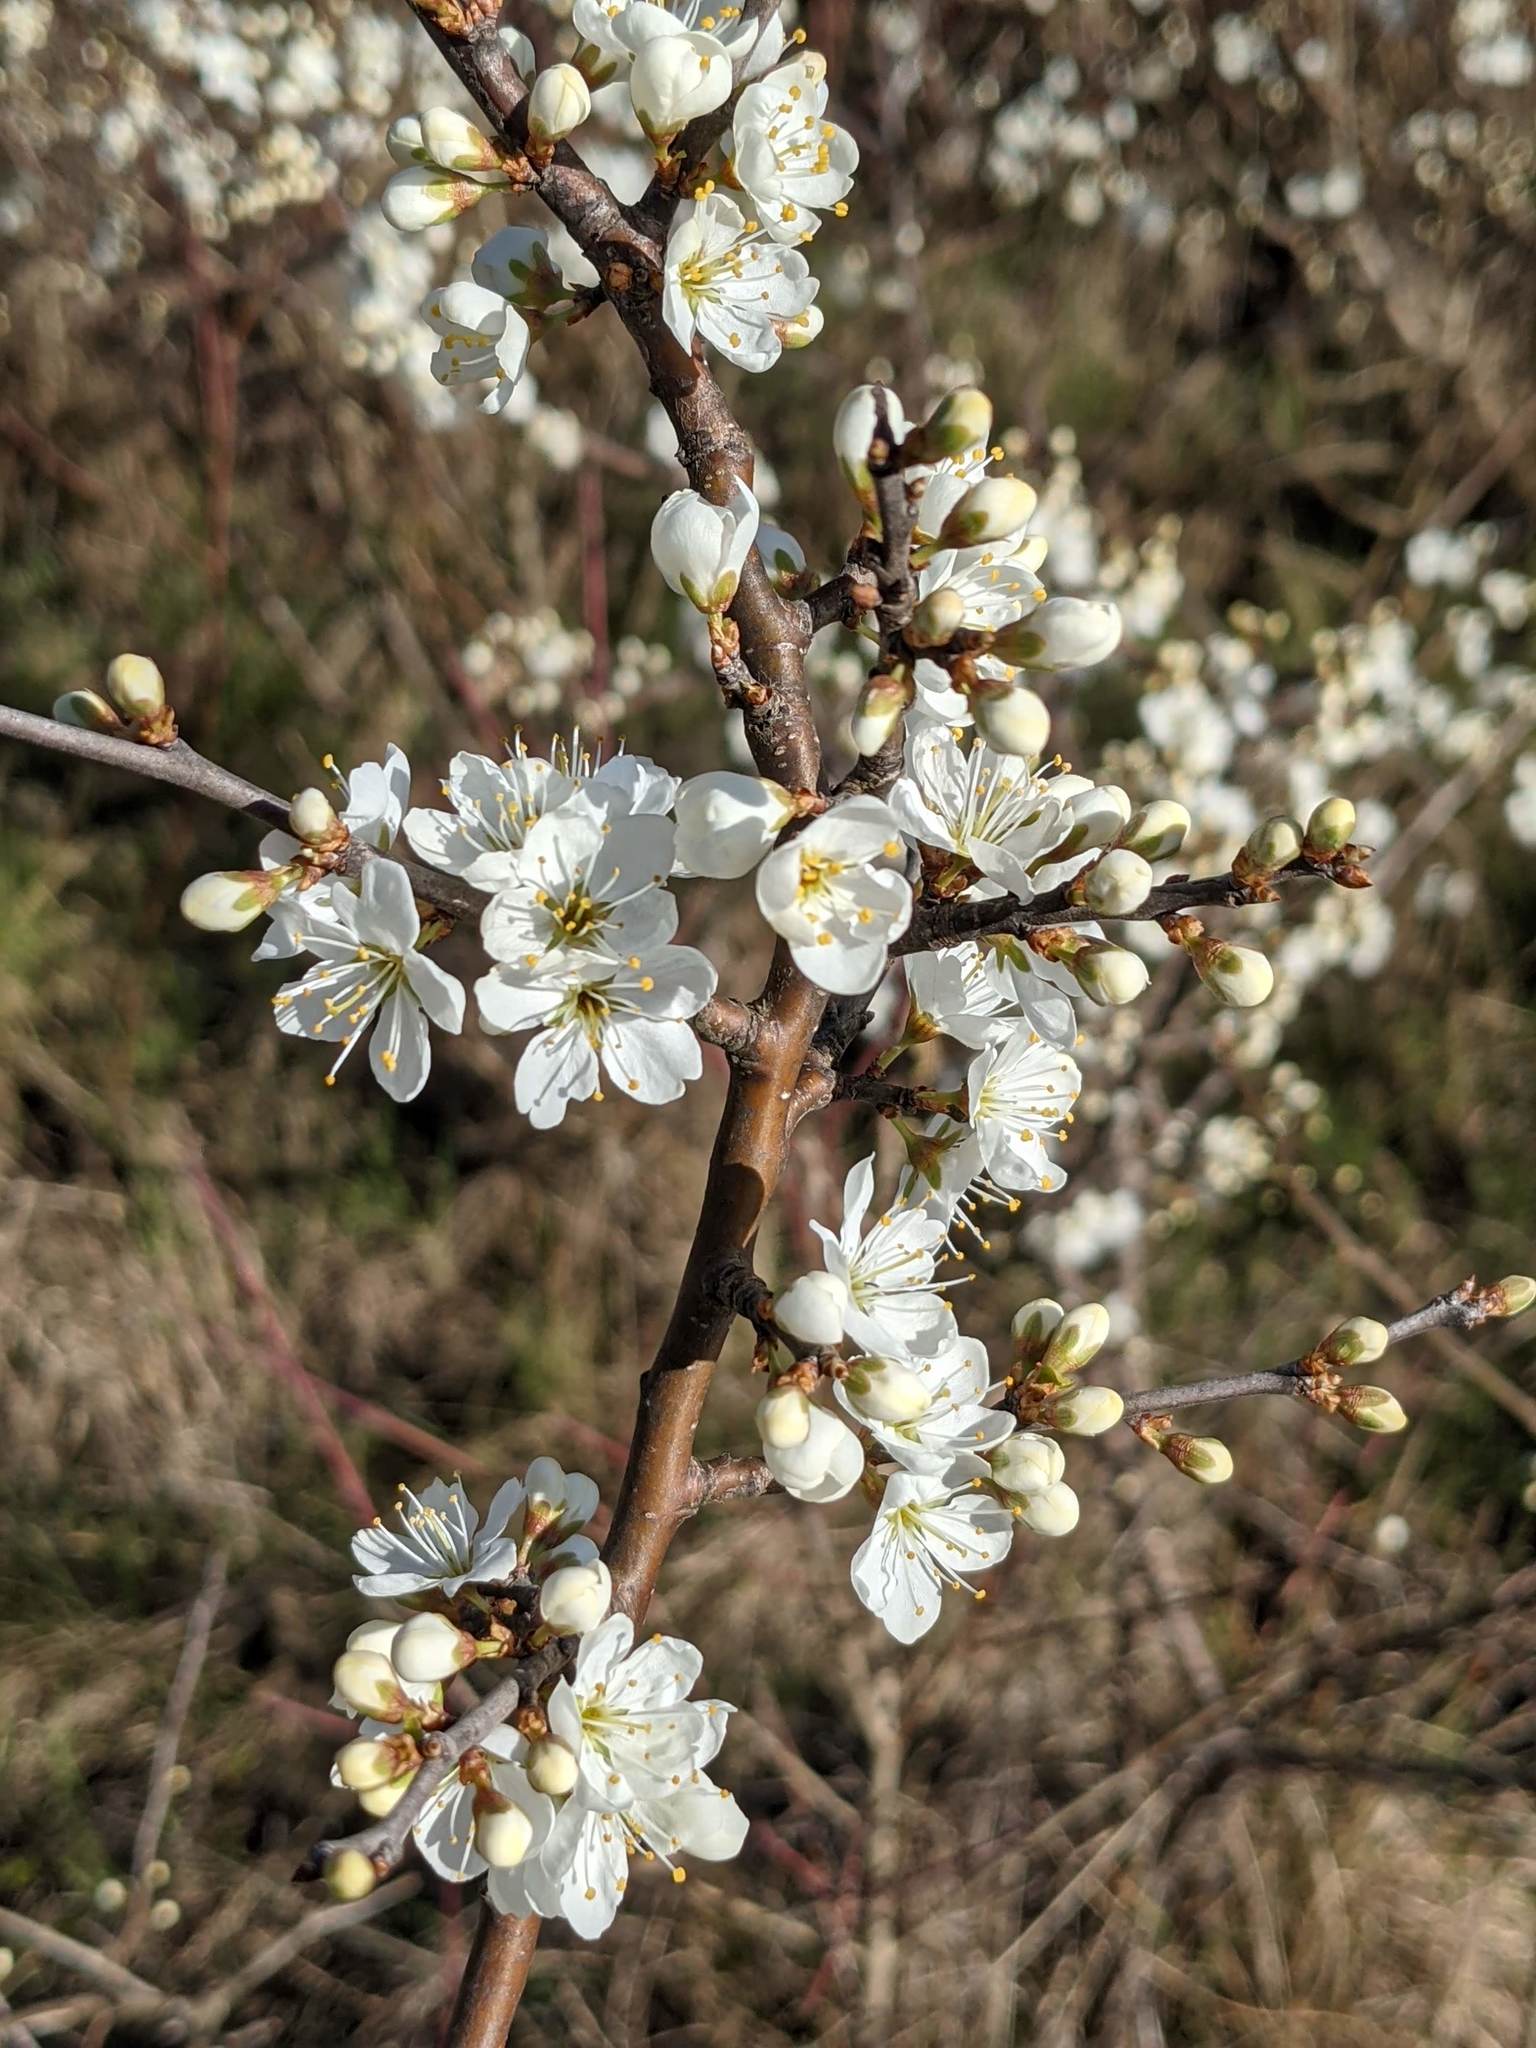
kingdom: Plantae
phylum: Tracheophyta
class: Magnoliopsida
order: Rosales
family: Rosaceae
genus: Prunus
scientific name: Prunus spinosa
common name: Blackthorn
